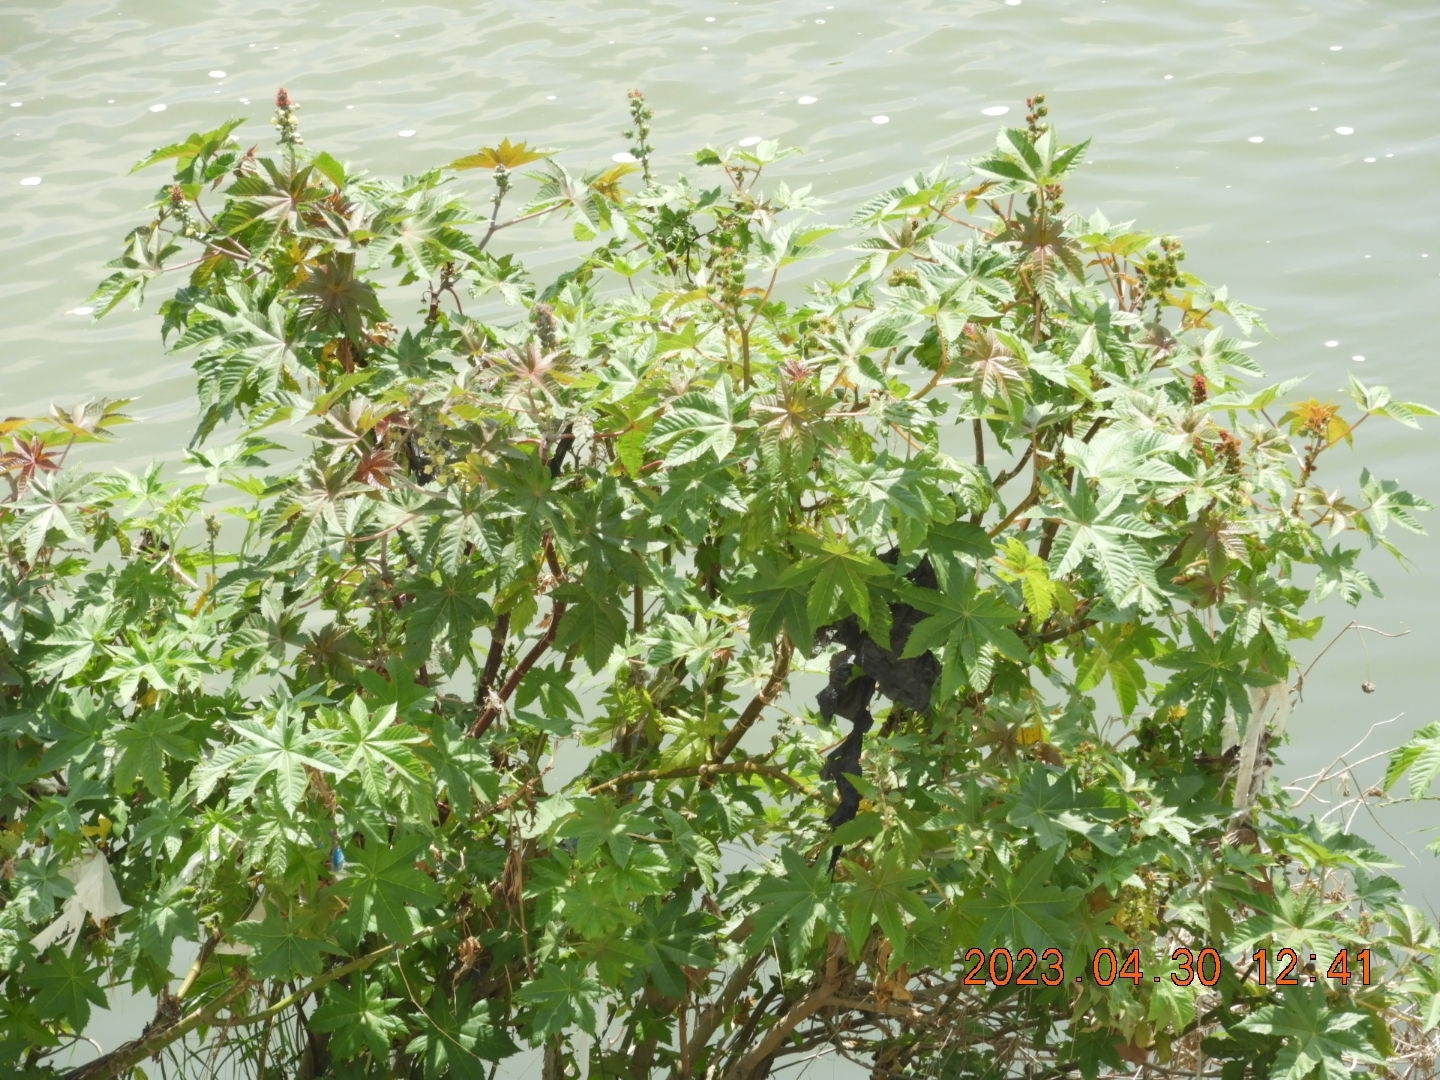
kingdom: Plantae
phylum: Tracheophyta
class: Magnoliopsida
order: Malpighiales
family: Euphorbiaceae
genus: Ricinus
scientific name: Ricinus communis
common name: Castor-oil-plant
